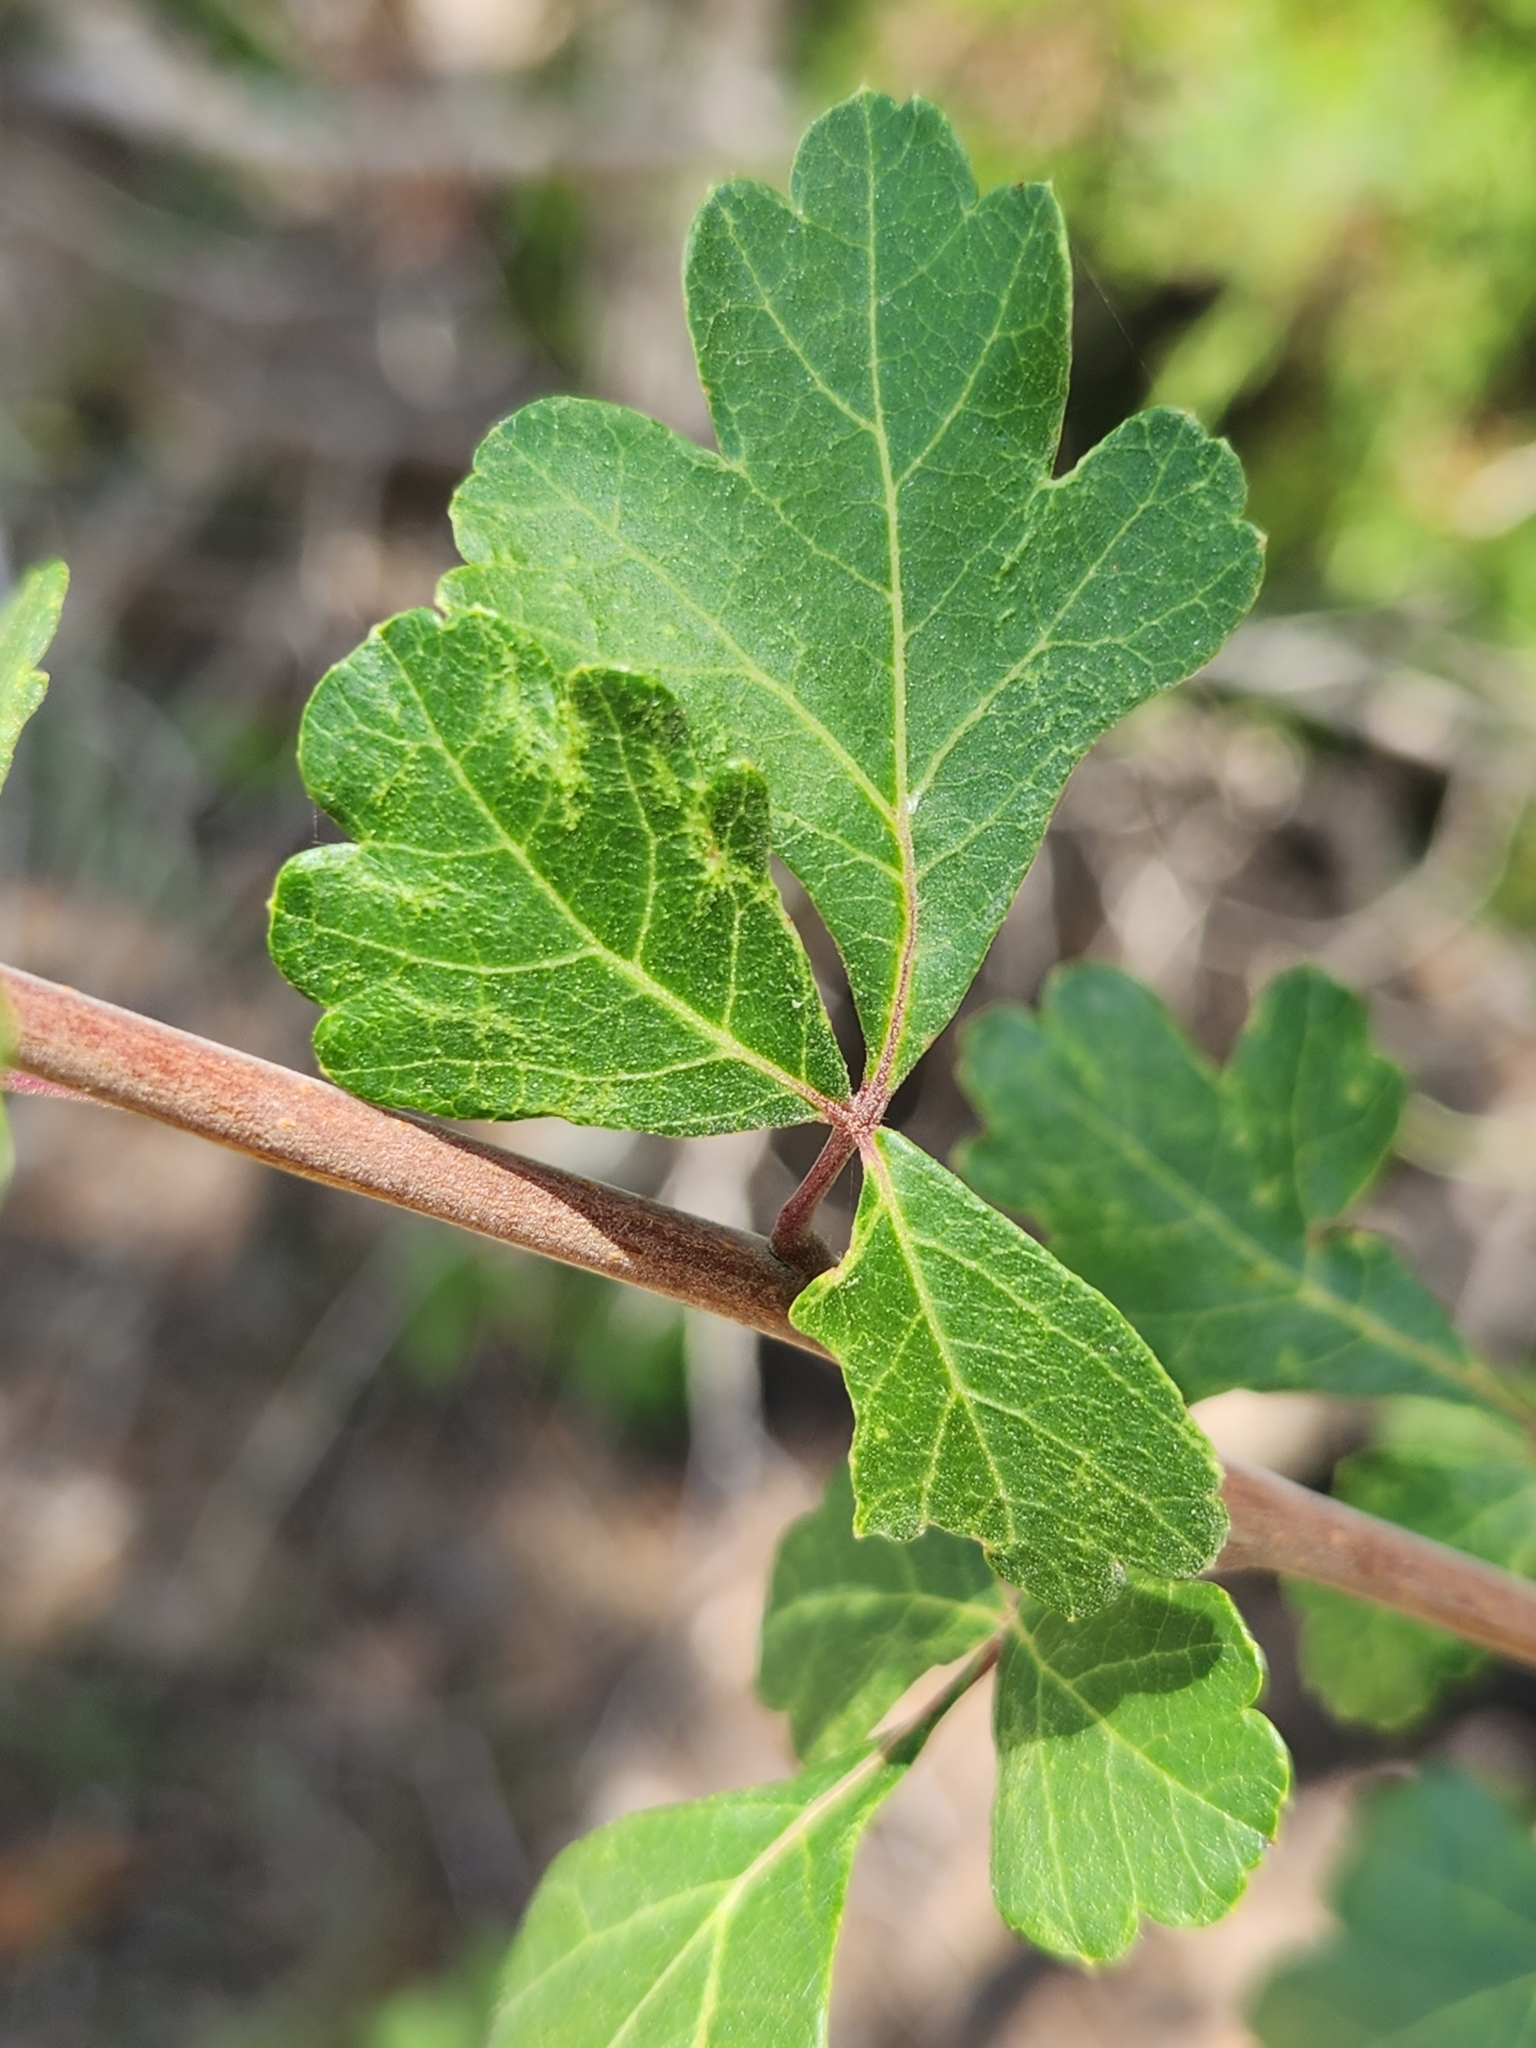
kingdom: Plantae
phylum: Tracheophyta
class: Magnoliopsida
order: Sapindales
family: Anacardiaceae
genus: Rhus
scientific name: Rhus aromatica
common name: Aromatic sumac
